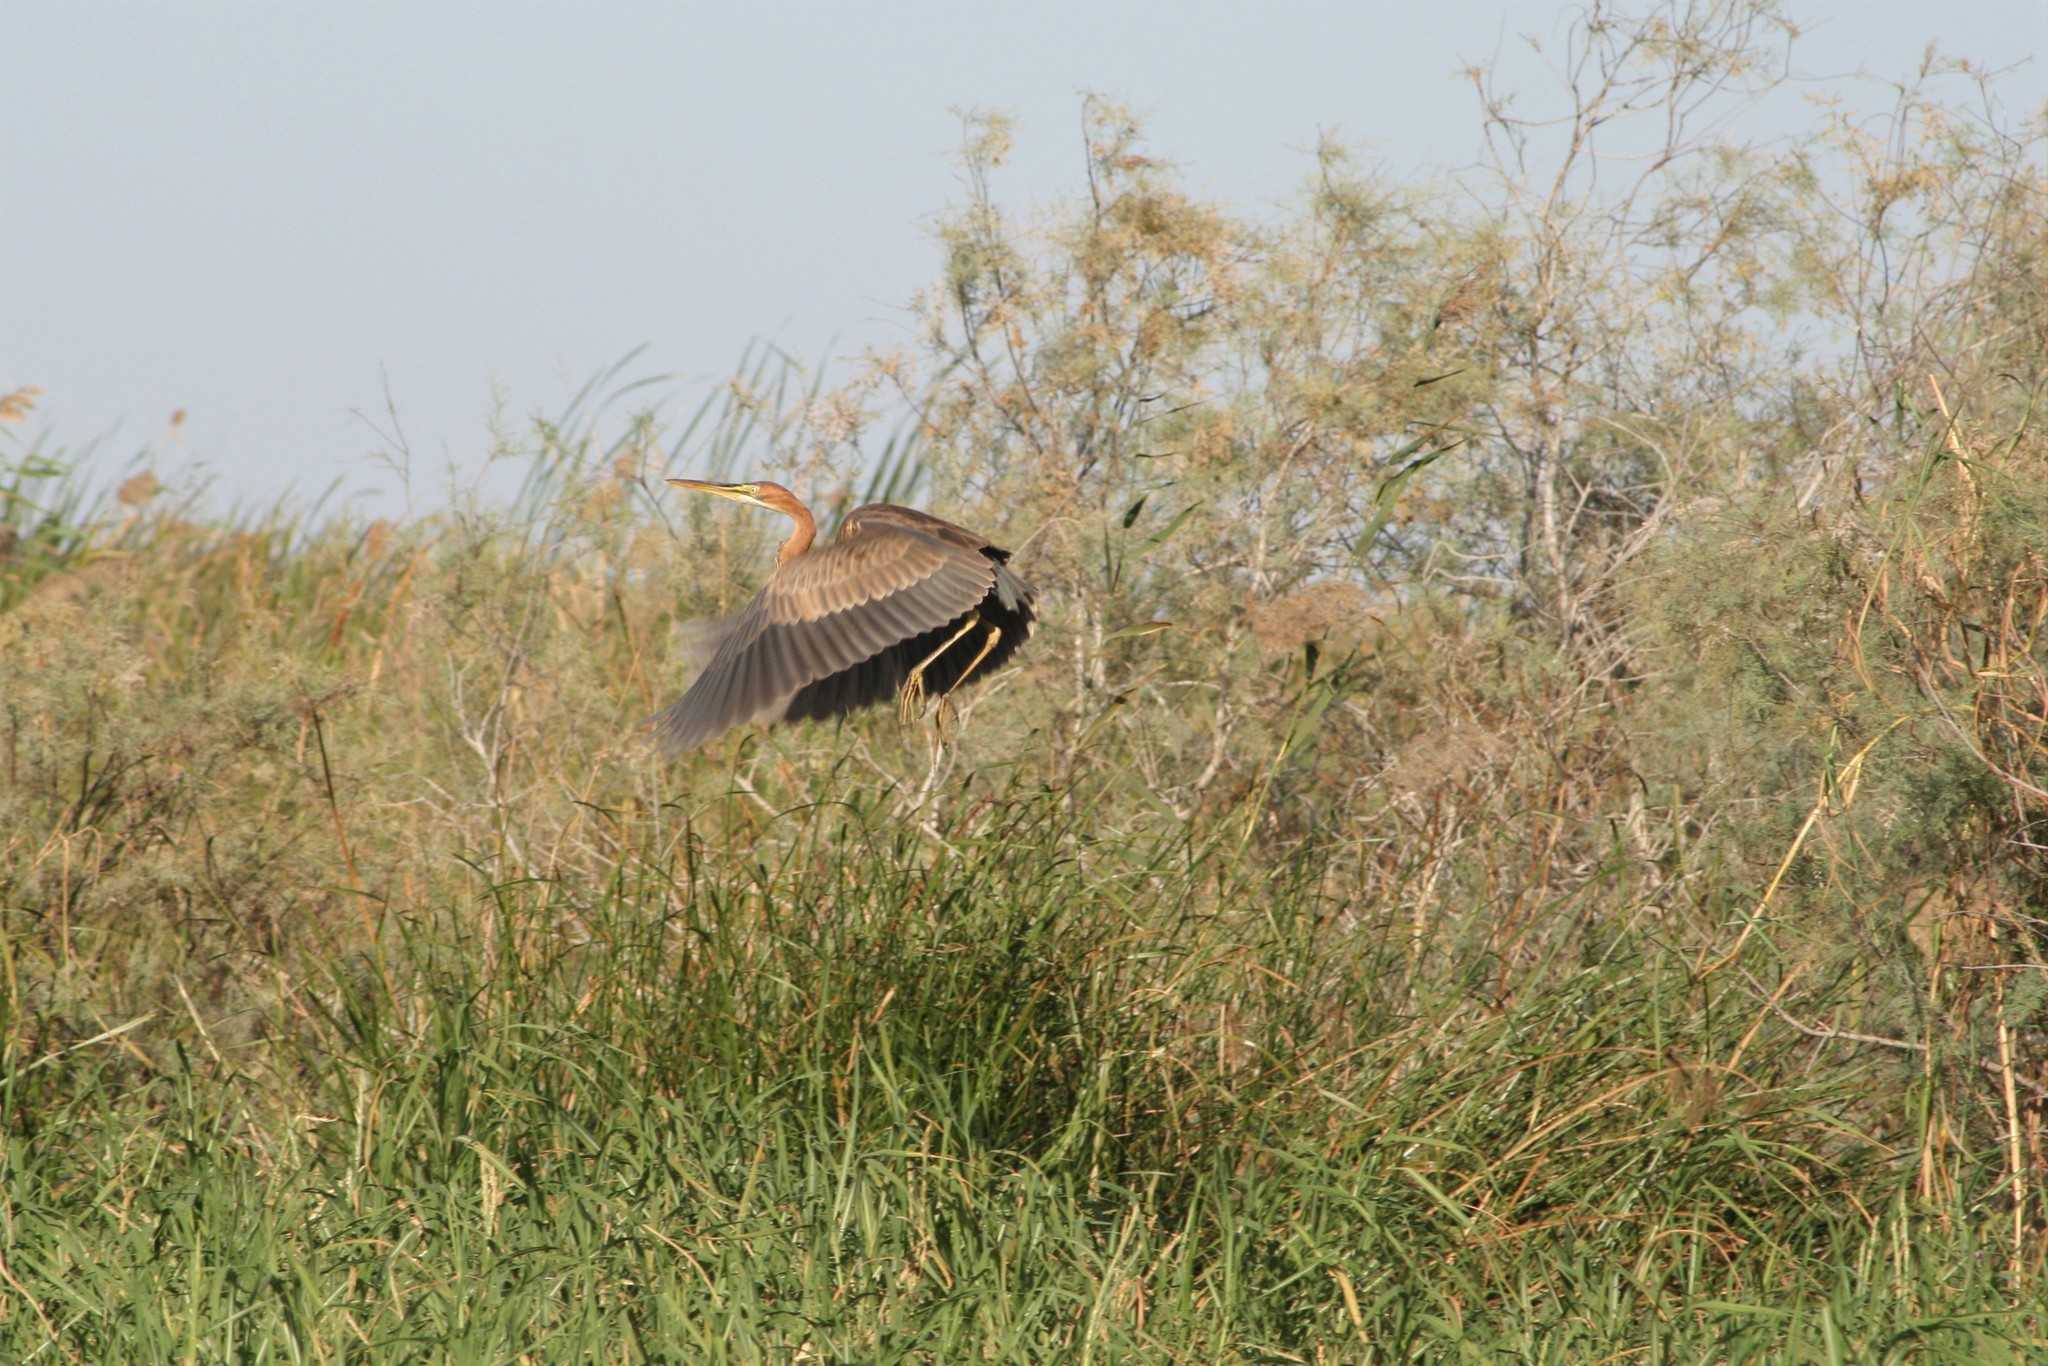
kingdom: Animalia
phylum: Chordata
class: Aves
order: Pelecaniformes
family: Ardeidae
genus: Ardea
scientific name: Ardea purpurea
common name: Purple heron
